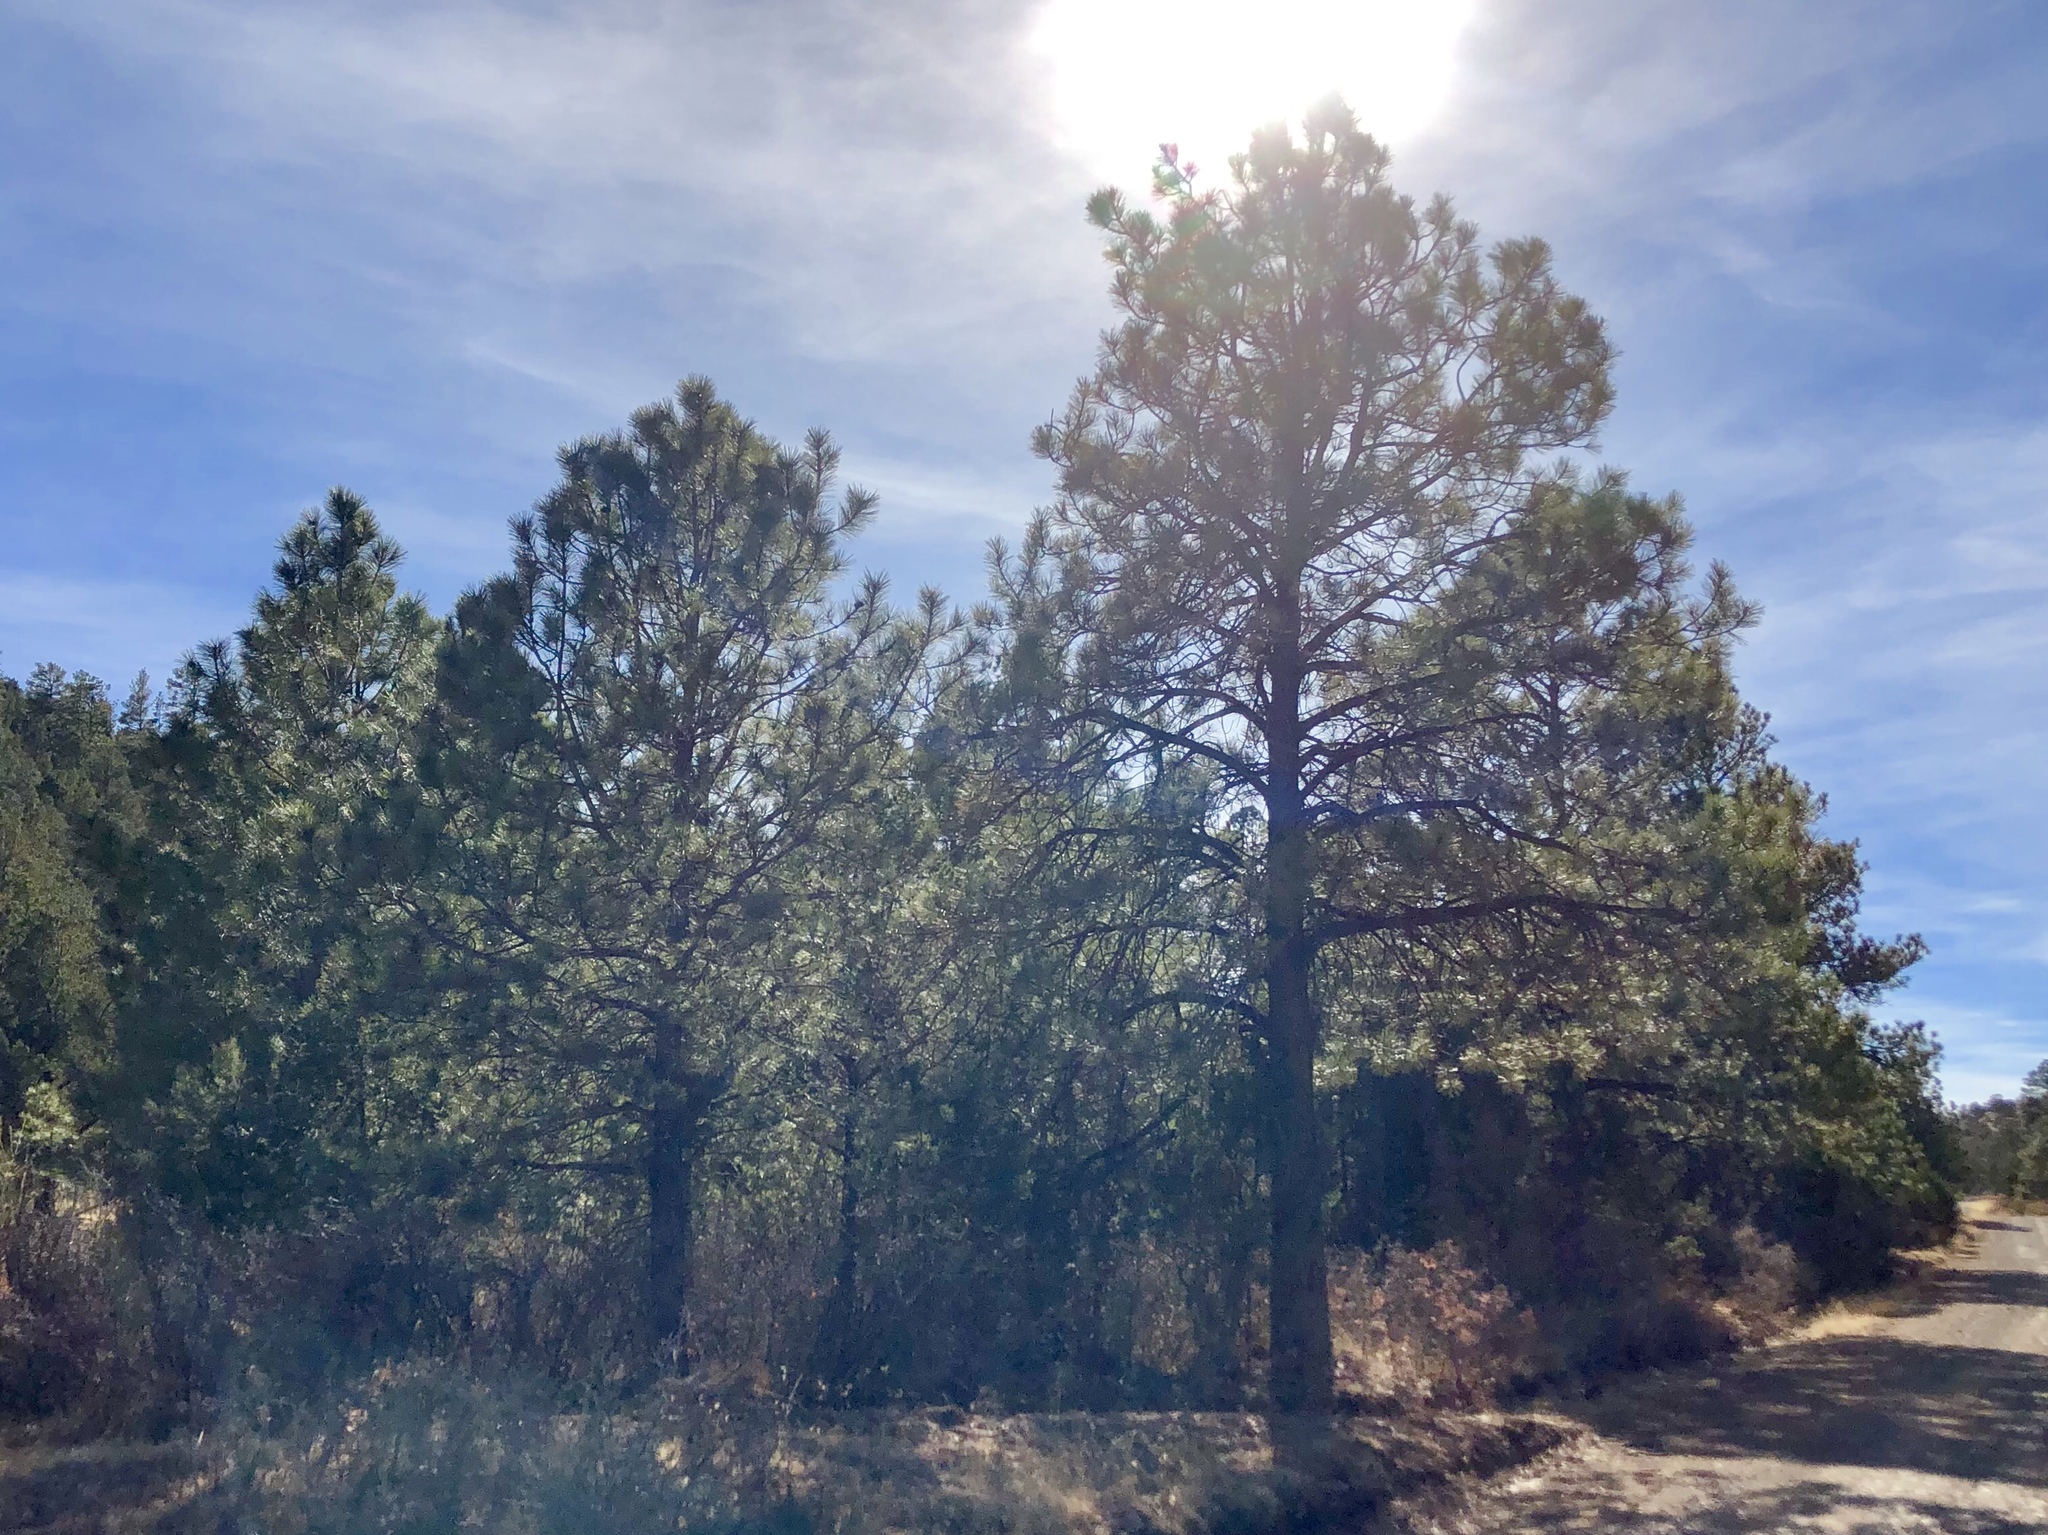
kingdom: Plantae
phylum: Tracheophyta
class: Pinopsida
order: Pinales
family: Pinaceae
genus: Pinus
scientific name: Pinus ponderosa
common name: Western yellow-pine
